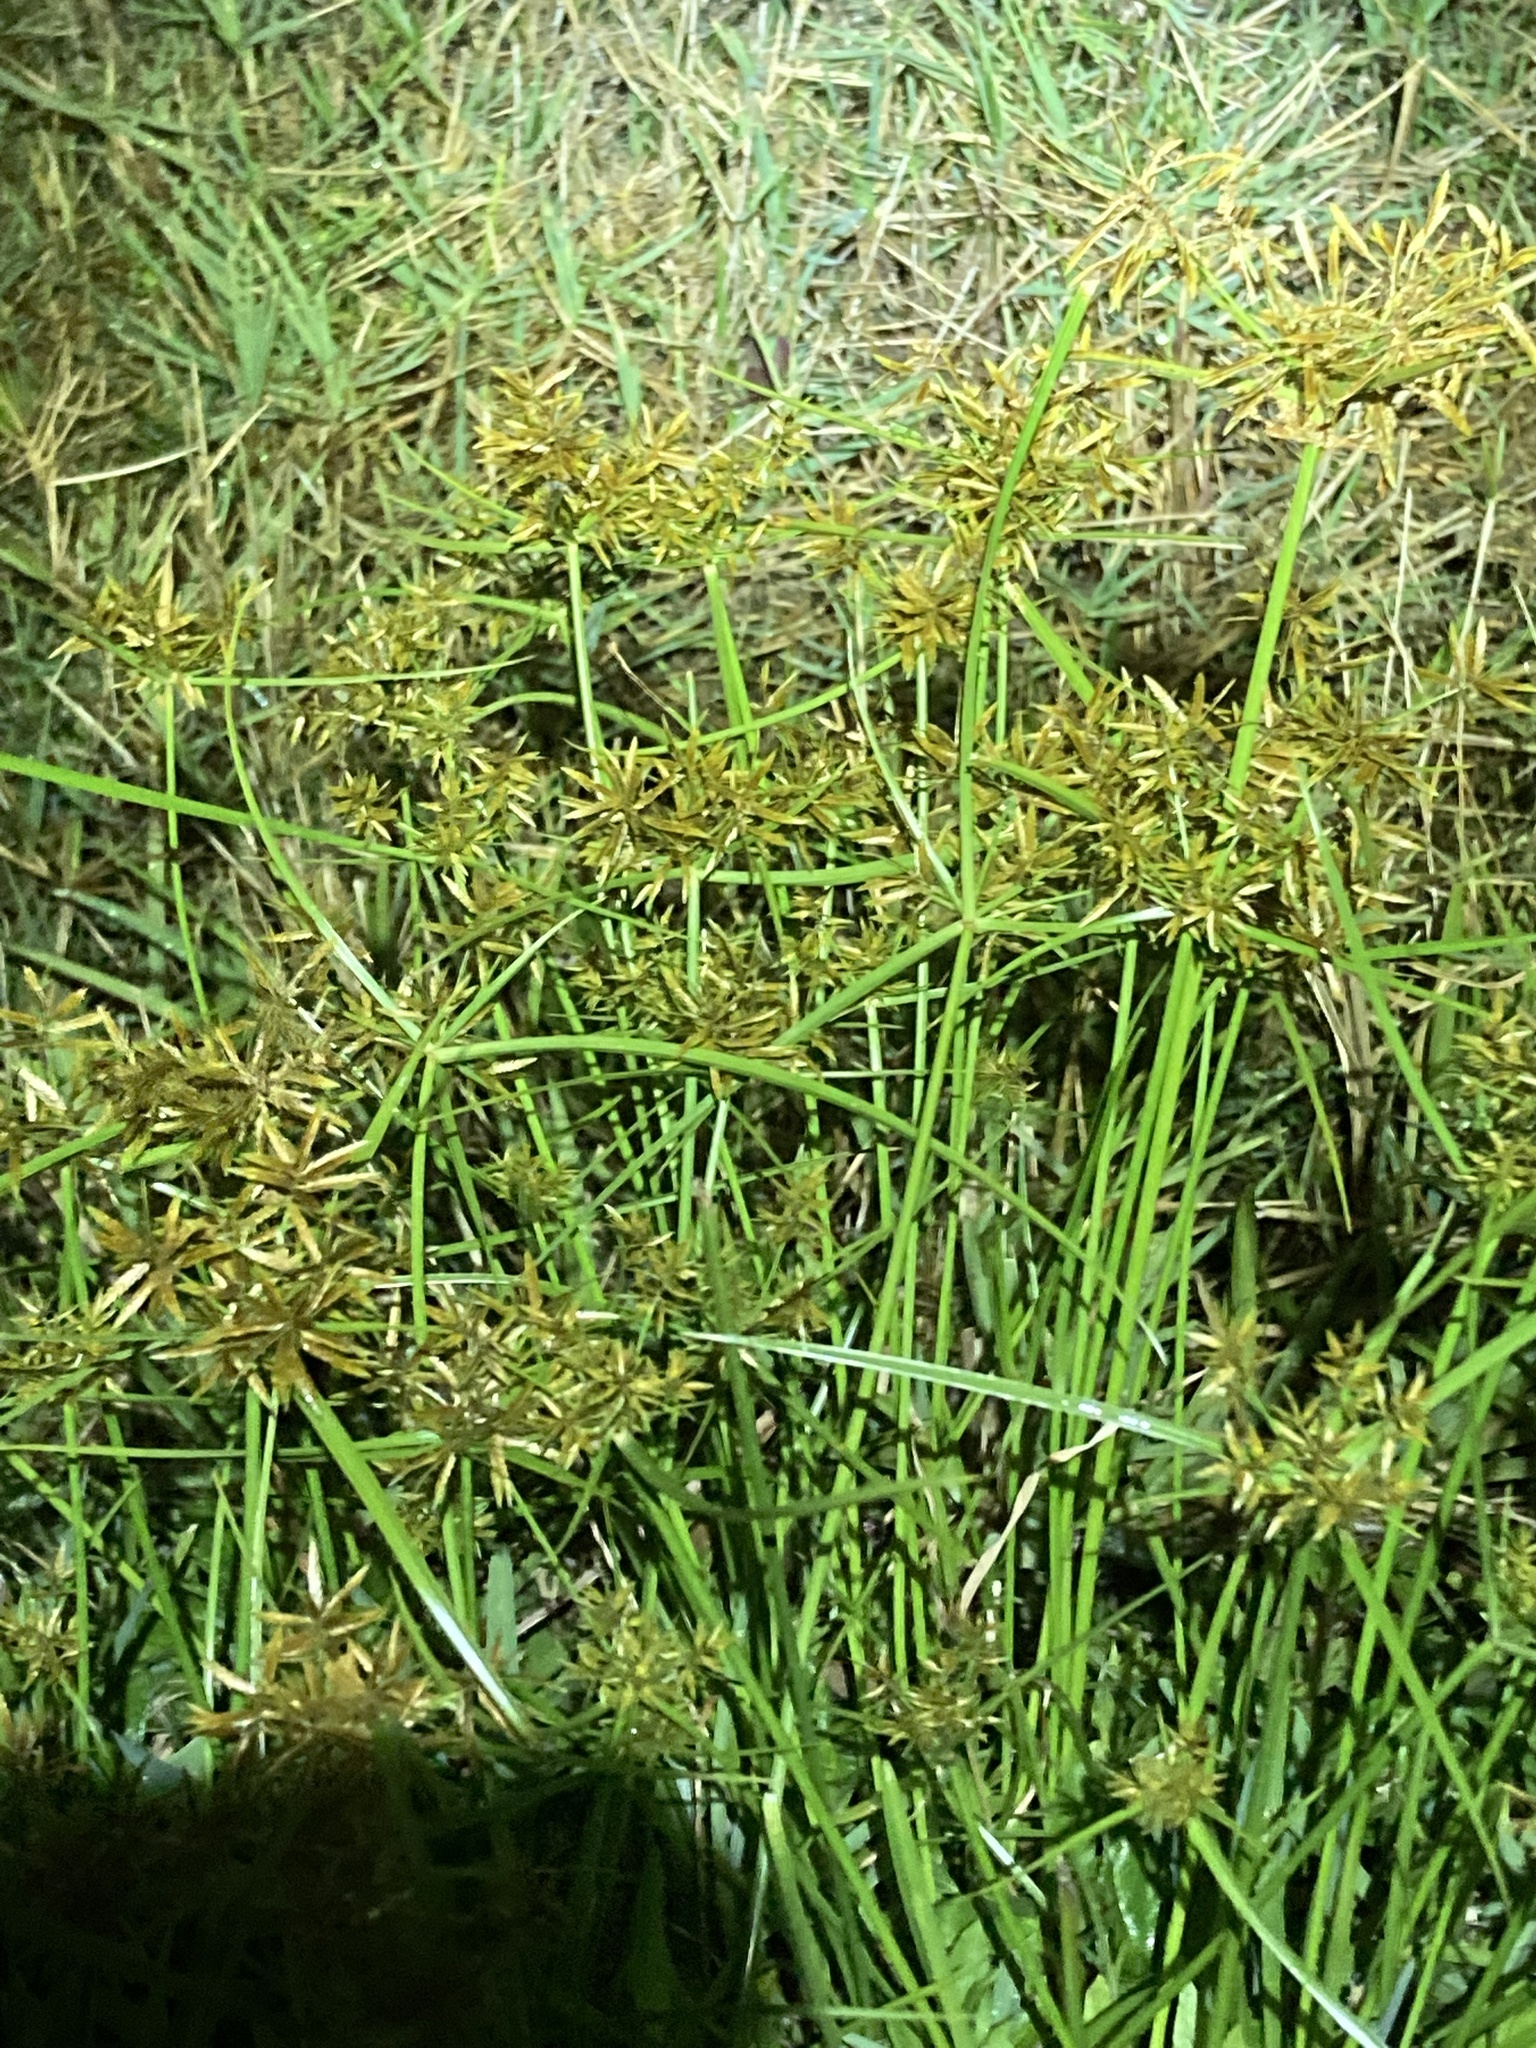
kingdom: Plantae
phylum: Tracheophyta
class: Liliopsida
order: Poales
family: Cyperaceae
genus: Cyperus
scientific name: Cyperus polystachyos
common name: Bunchy flat sedge
